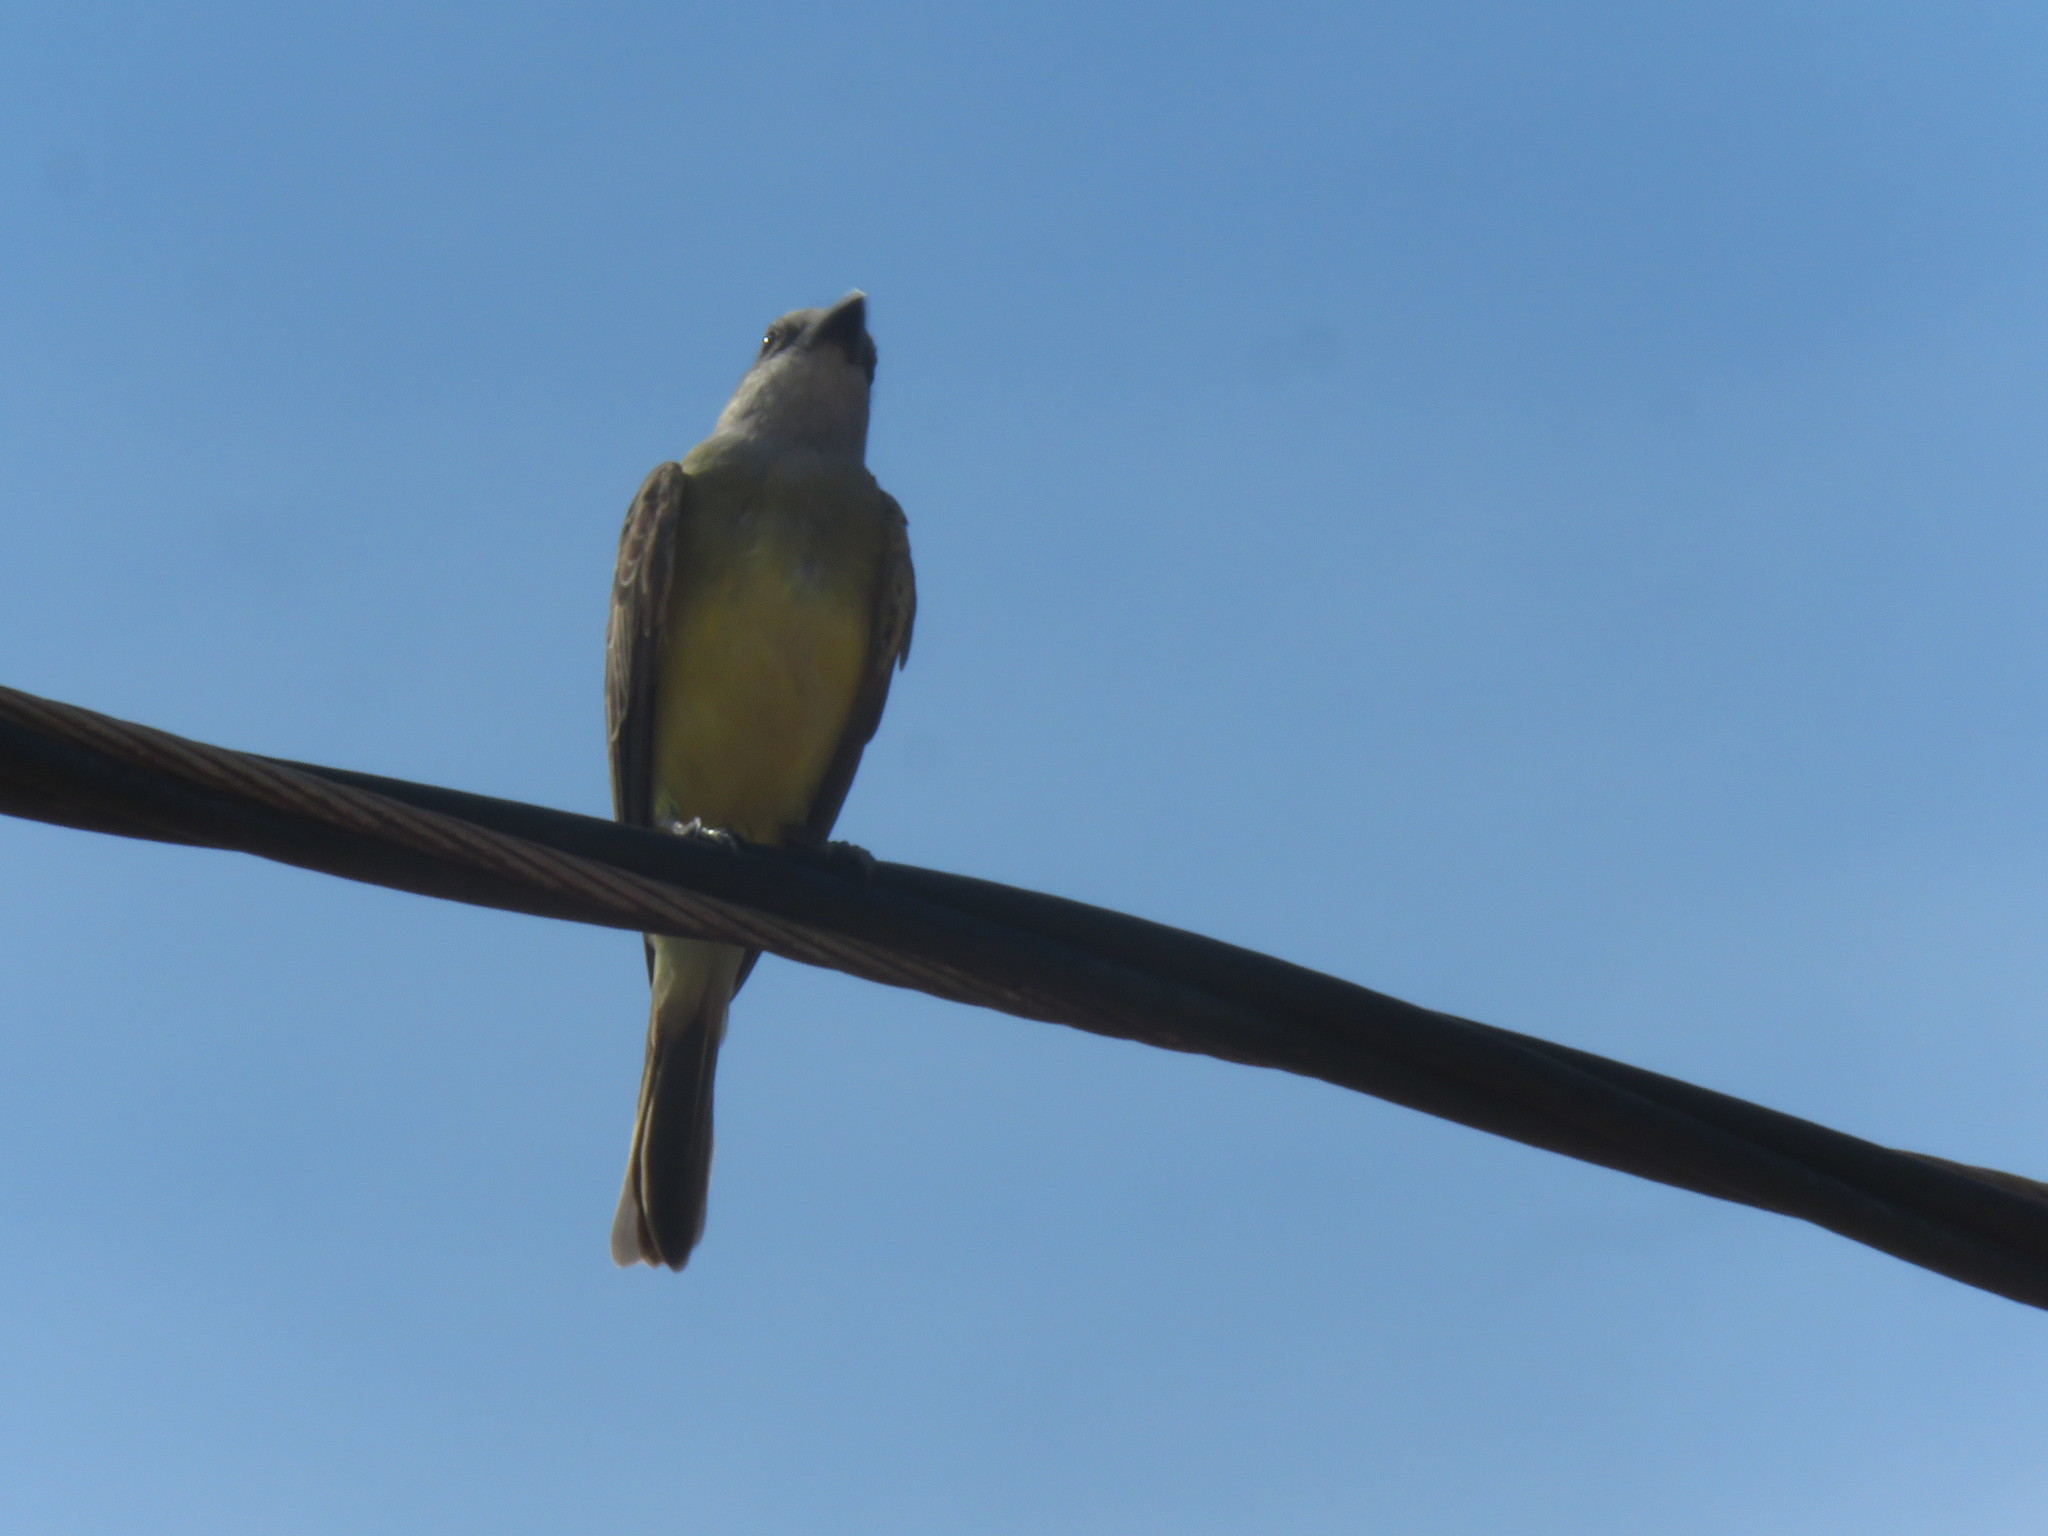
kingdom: Animalia
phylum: Chordata
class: Aves
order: Passeriformes
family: Tyrannidae
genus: Tyrannus
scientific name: Tyrannus melancholicus
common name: Tropical kingbird
